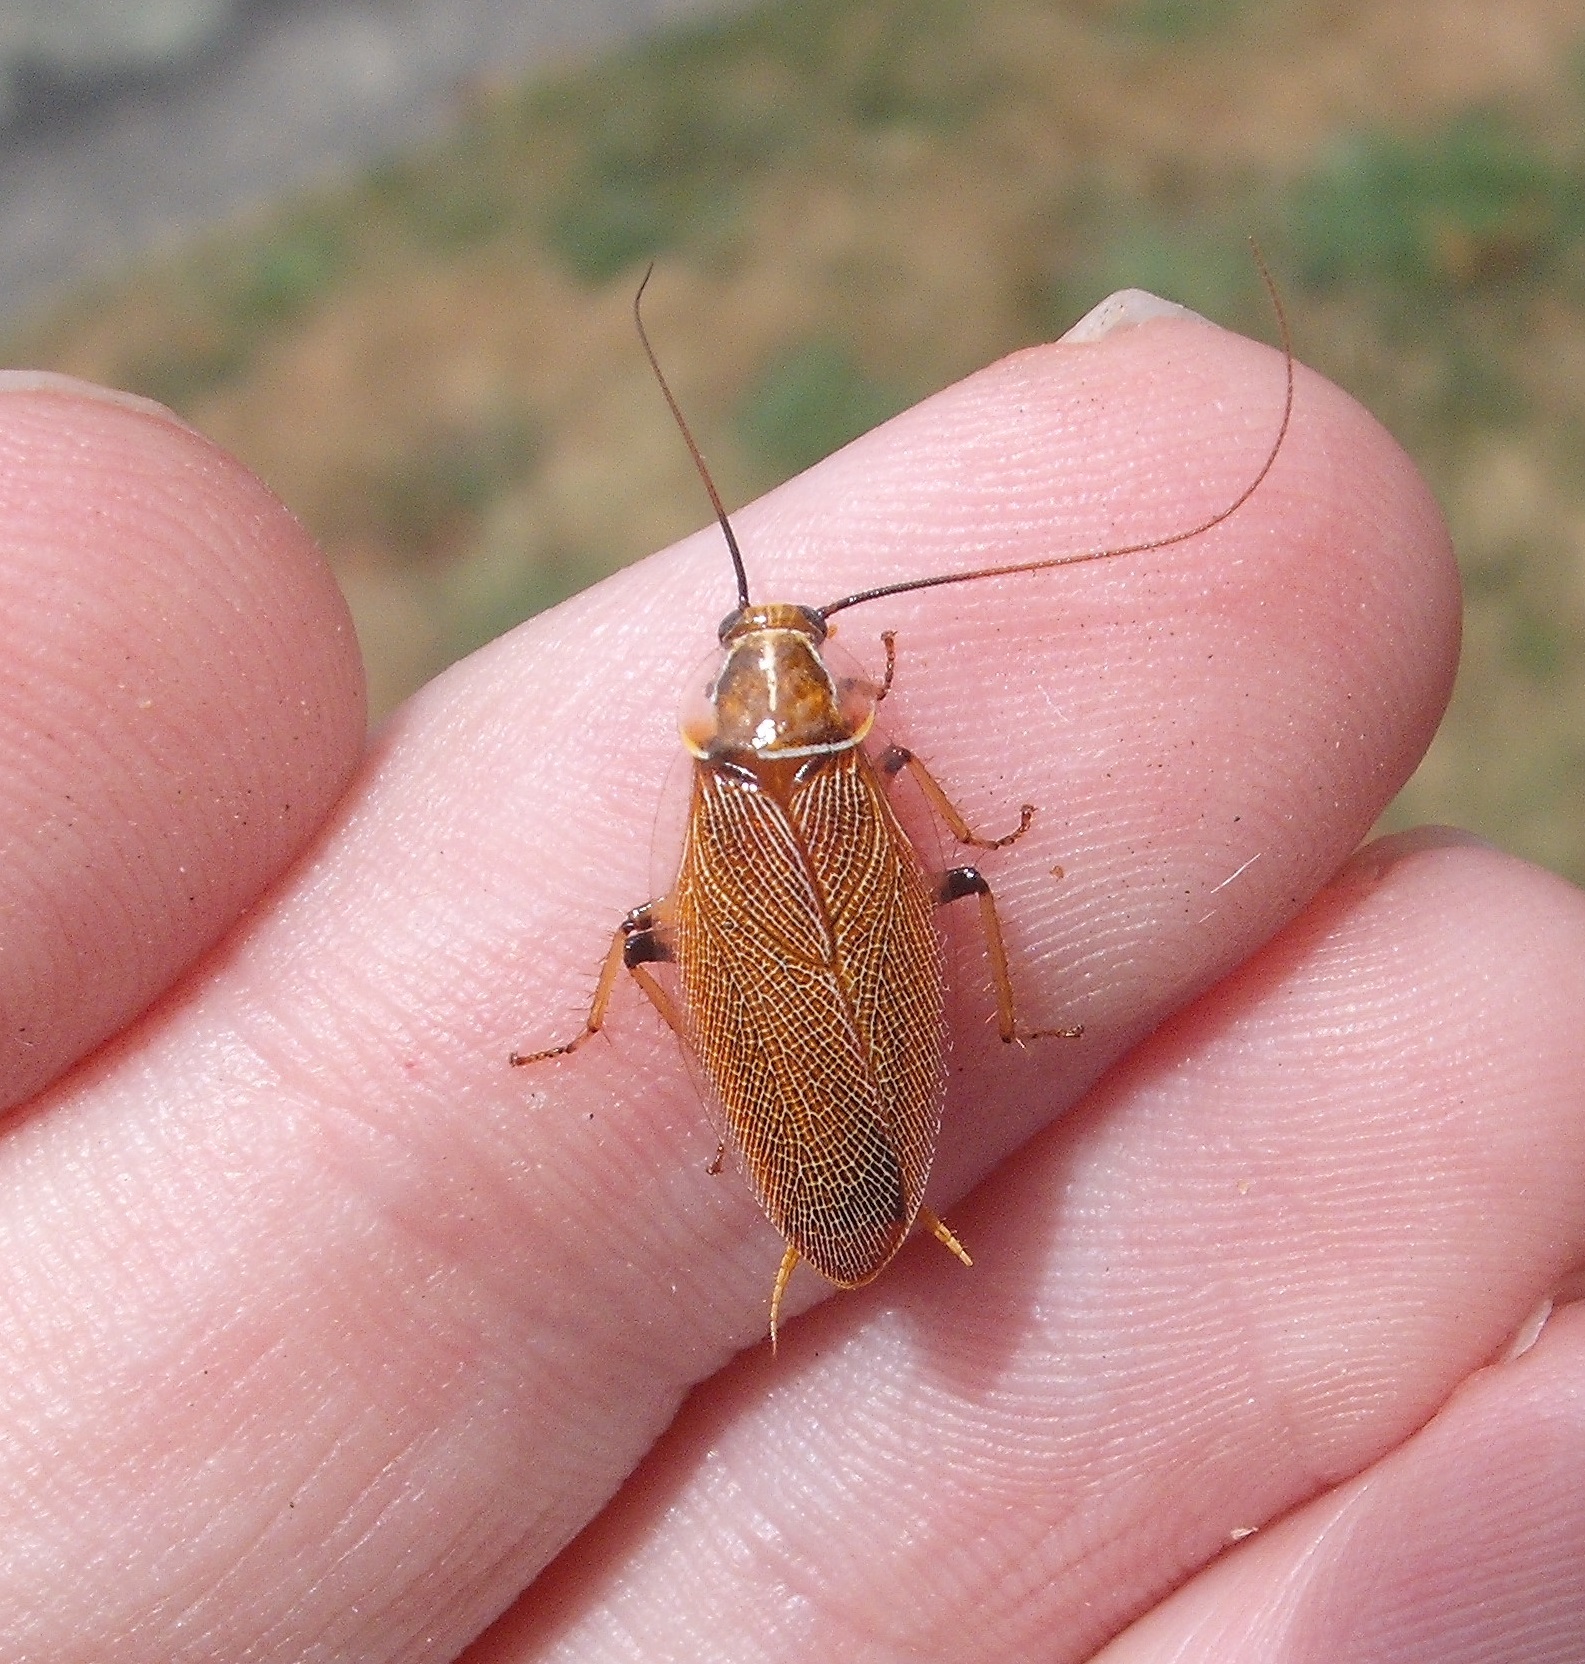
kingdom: Animalia
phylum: Arthropoda
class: Insecta
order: Blattodea
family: Ectobiidae
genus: Balta
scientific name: Balta bicolor
